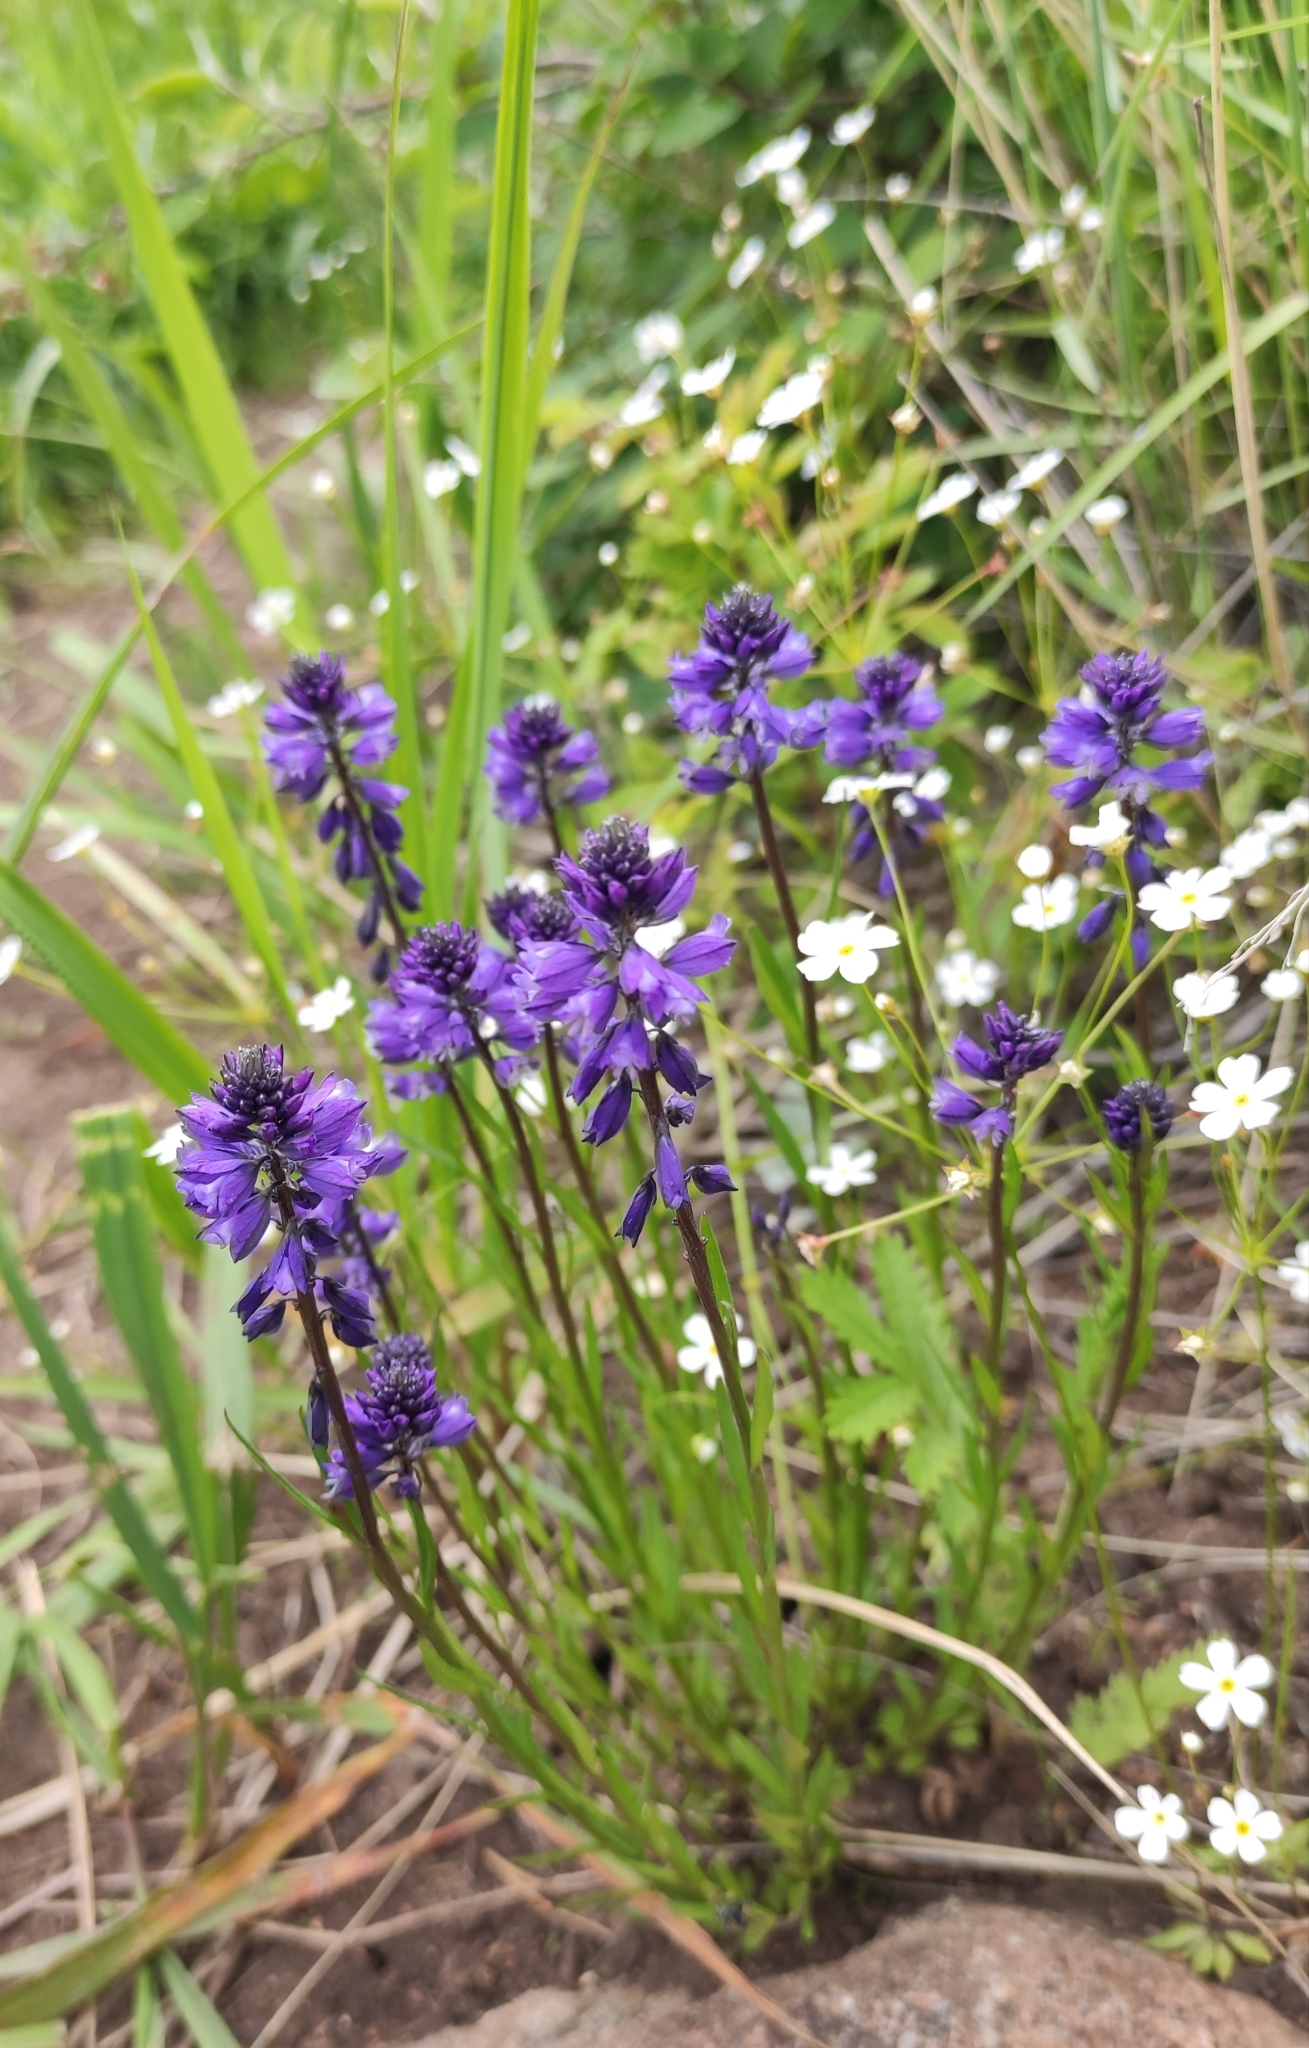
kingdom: Plantae
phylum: Tracheophyta
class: Magnoliopsida
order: Fabales
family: Polygalaceae
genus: Polygala
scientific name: Polygala comosa
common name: Tufted milkwort
